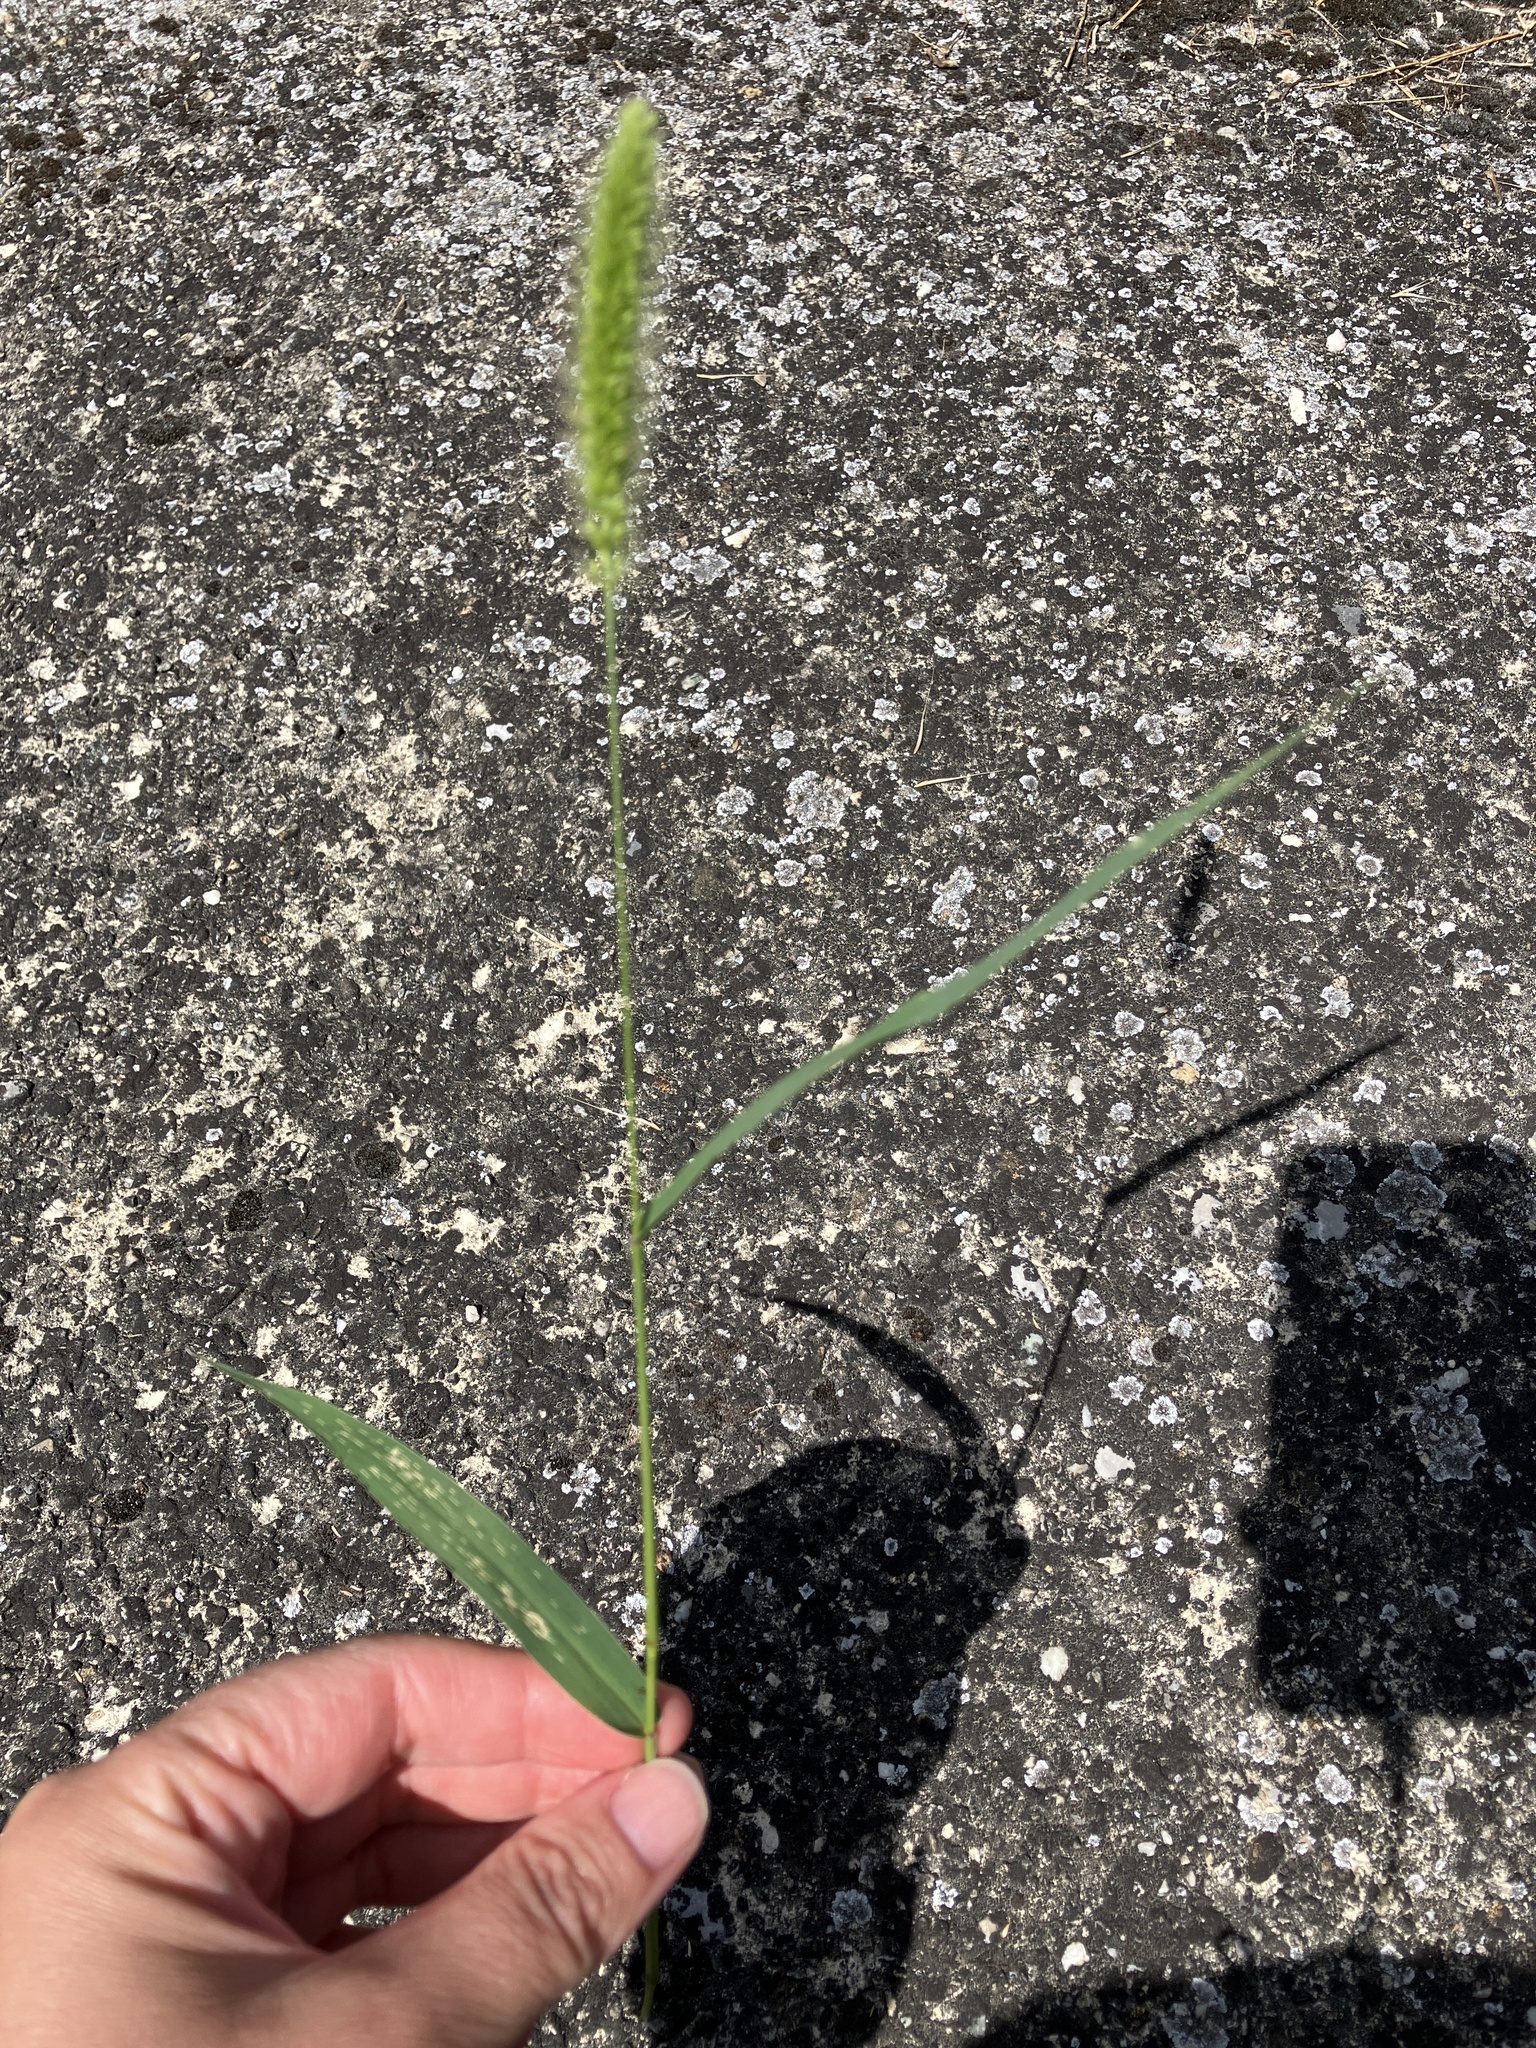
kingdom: Plantae
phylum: Tracheophyta
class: Liliopsida
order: Poales
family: Poaceae
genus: Setaria
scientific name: Setaria viridis
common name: Green bristlegrass
